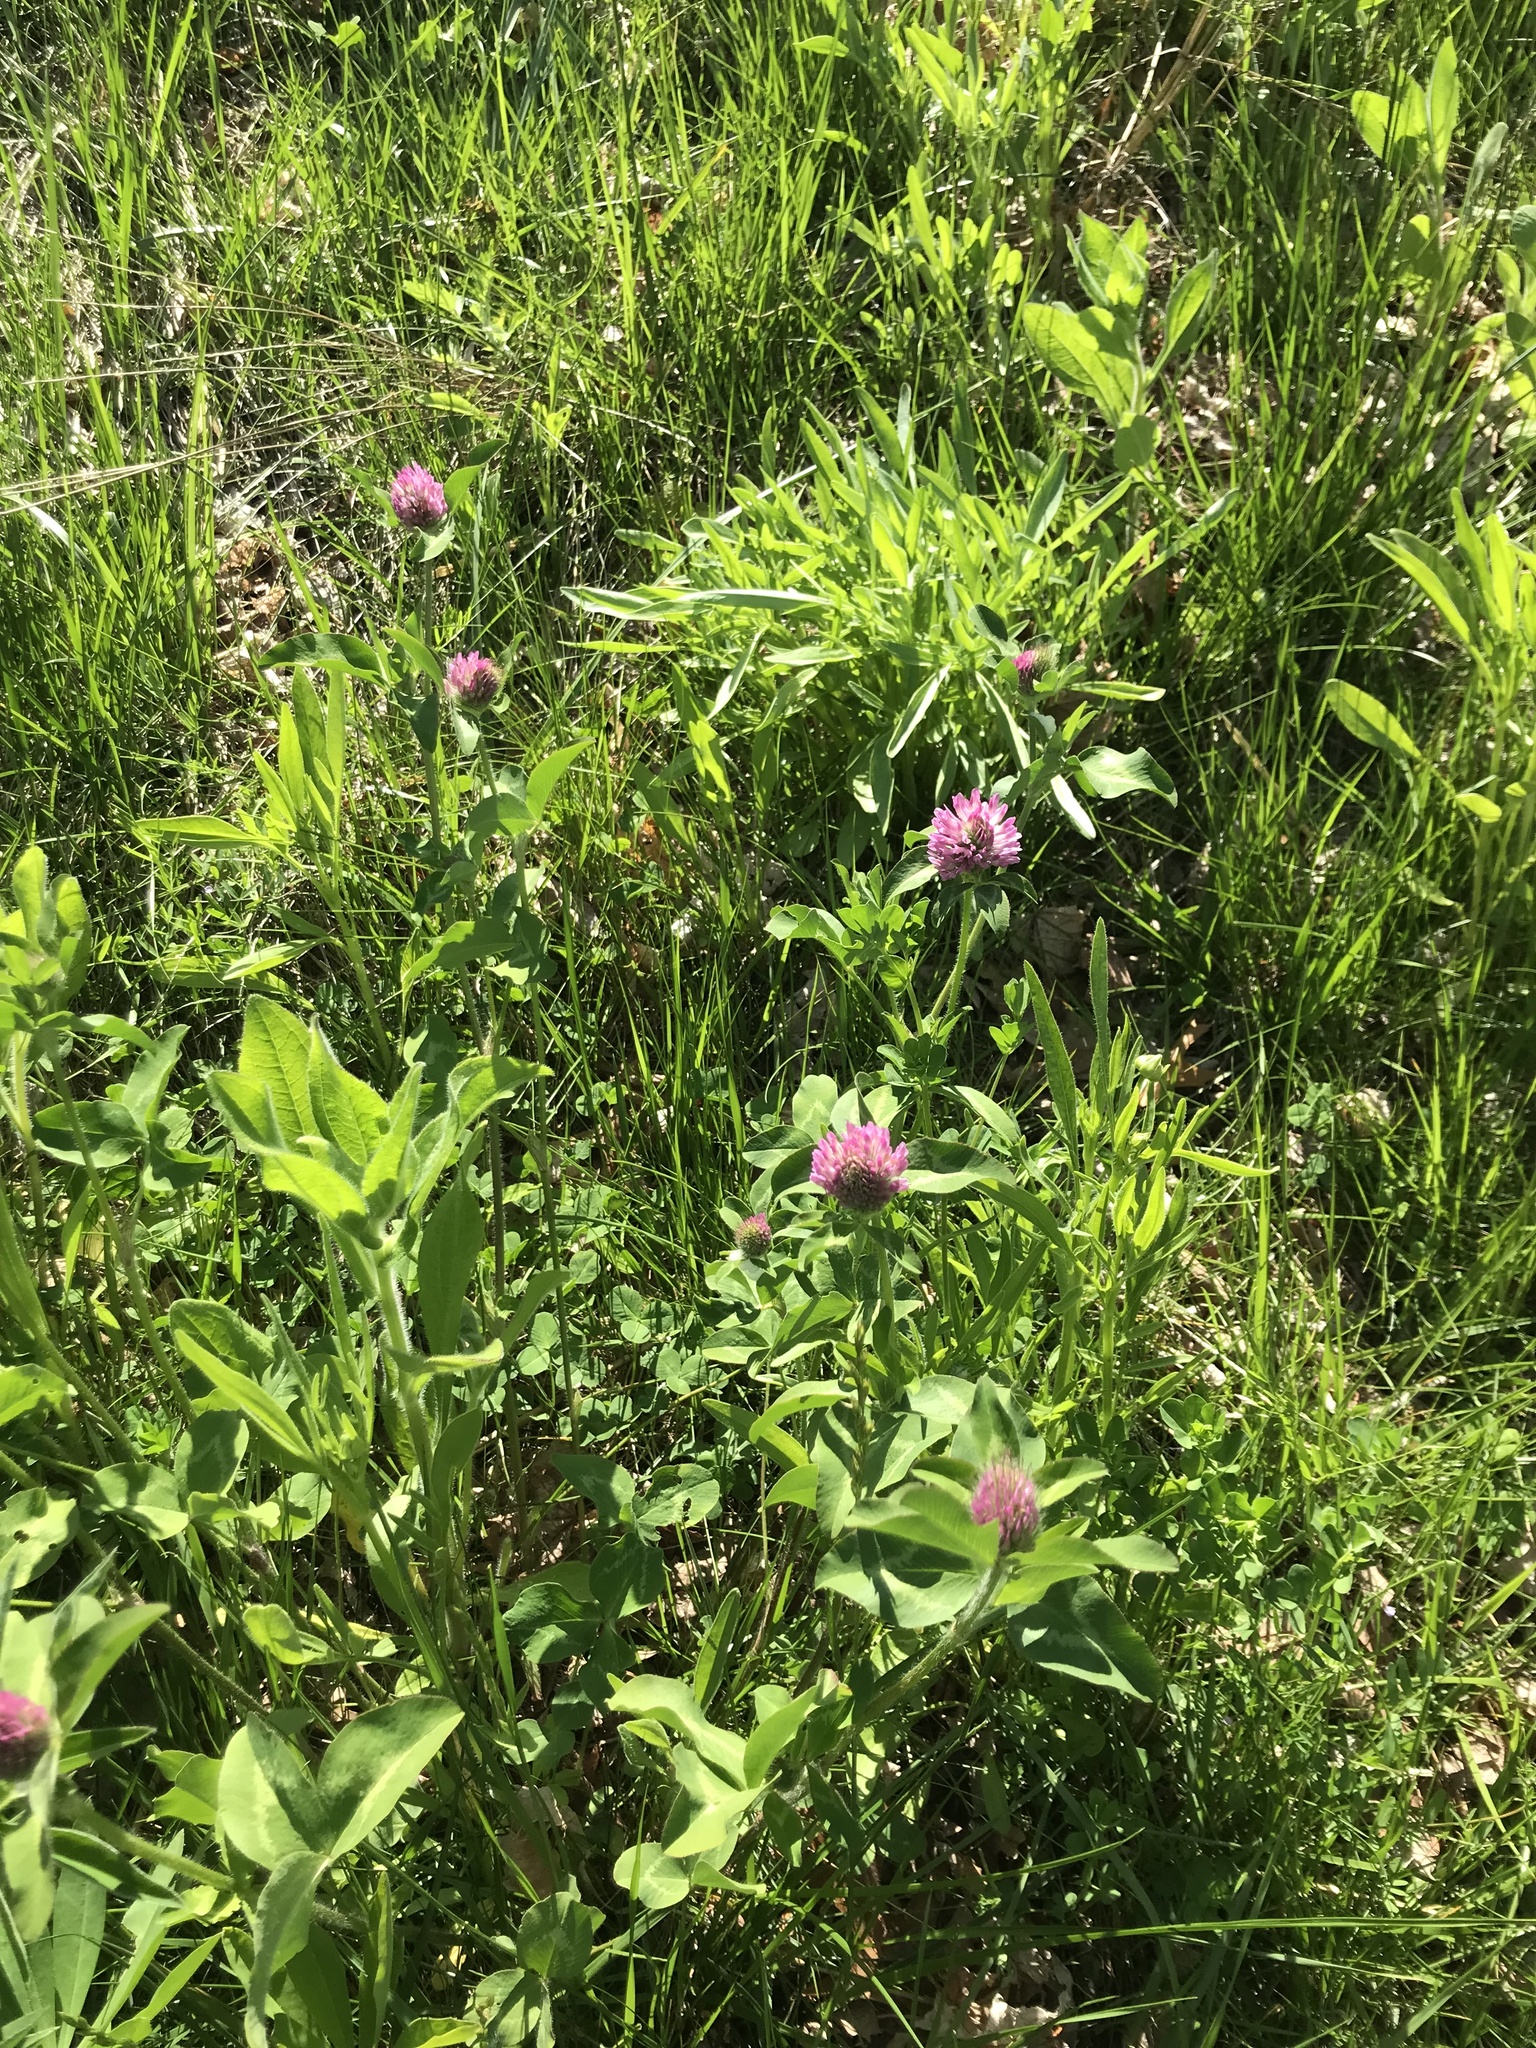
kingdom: Plantae
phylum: Tracheophyta
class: Magnoliopsida
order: Fabales
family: Fabaceae
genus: Trifolium
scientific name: Trifolium pratense
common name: Red clover
